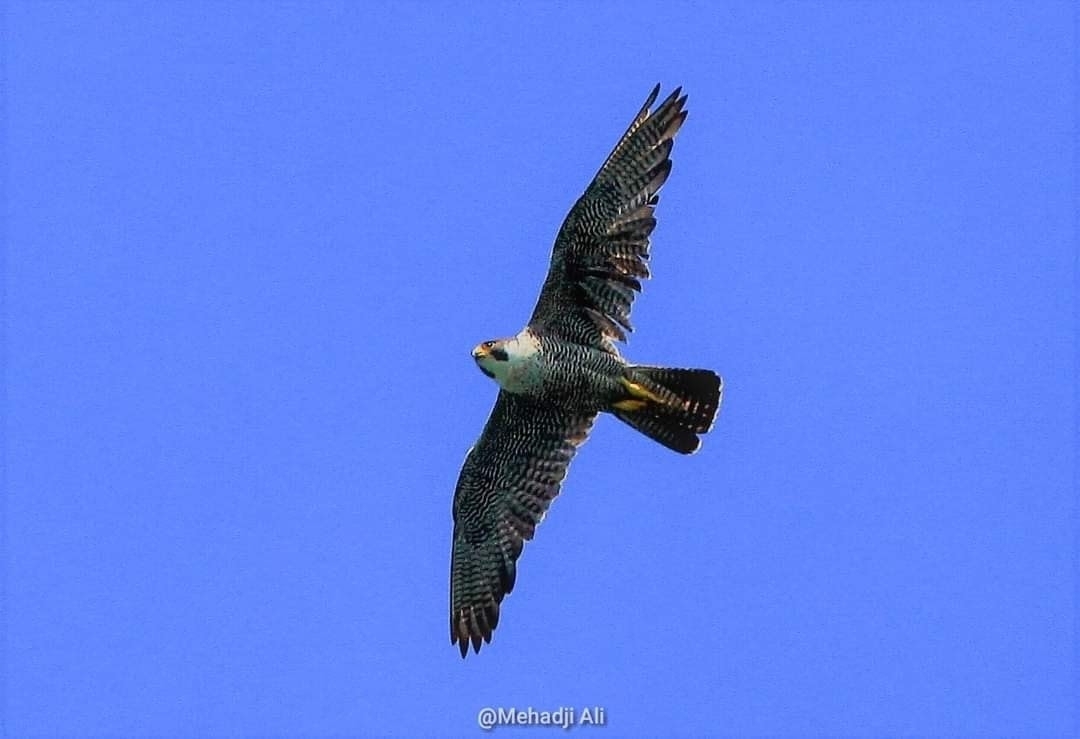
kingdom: Animalia
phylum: Chordata
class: Aves
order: Falconiformes
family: Falconidae
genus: Falco
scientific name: Falco peregrinus
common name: Peregrine falcon
